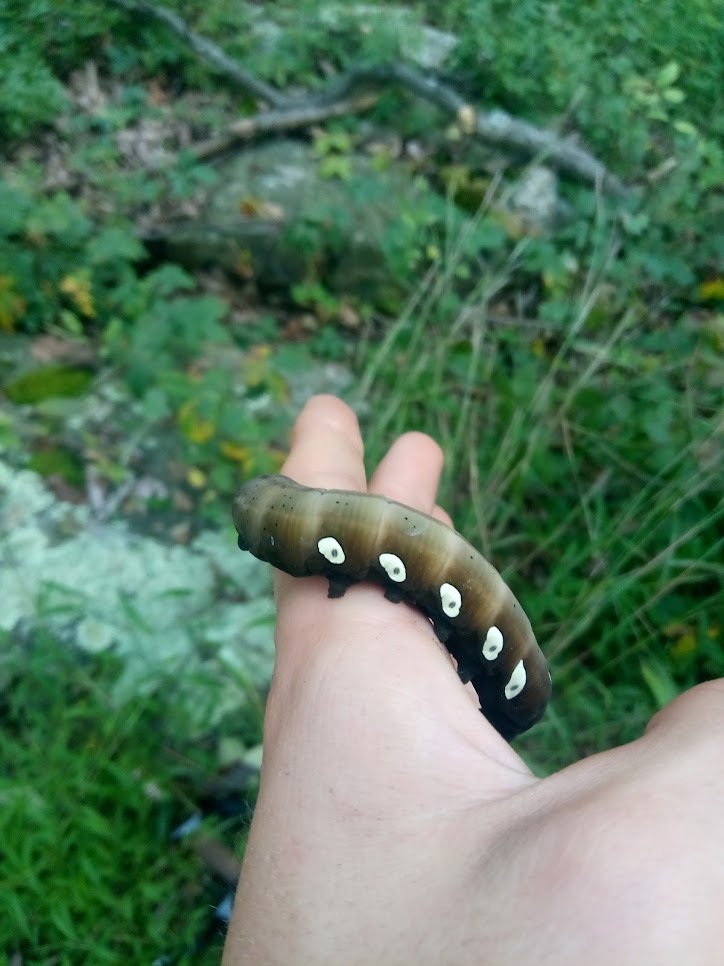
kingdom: Animalia
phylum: Arthropoda
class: Insecta
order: Lepidoptera
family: Sphingidae
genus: Eumorpha
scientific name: Eumorpha pandorus
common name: Pandora sphinx
